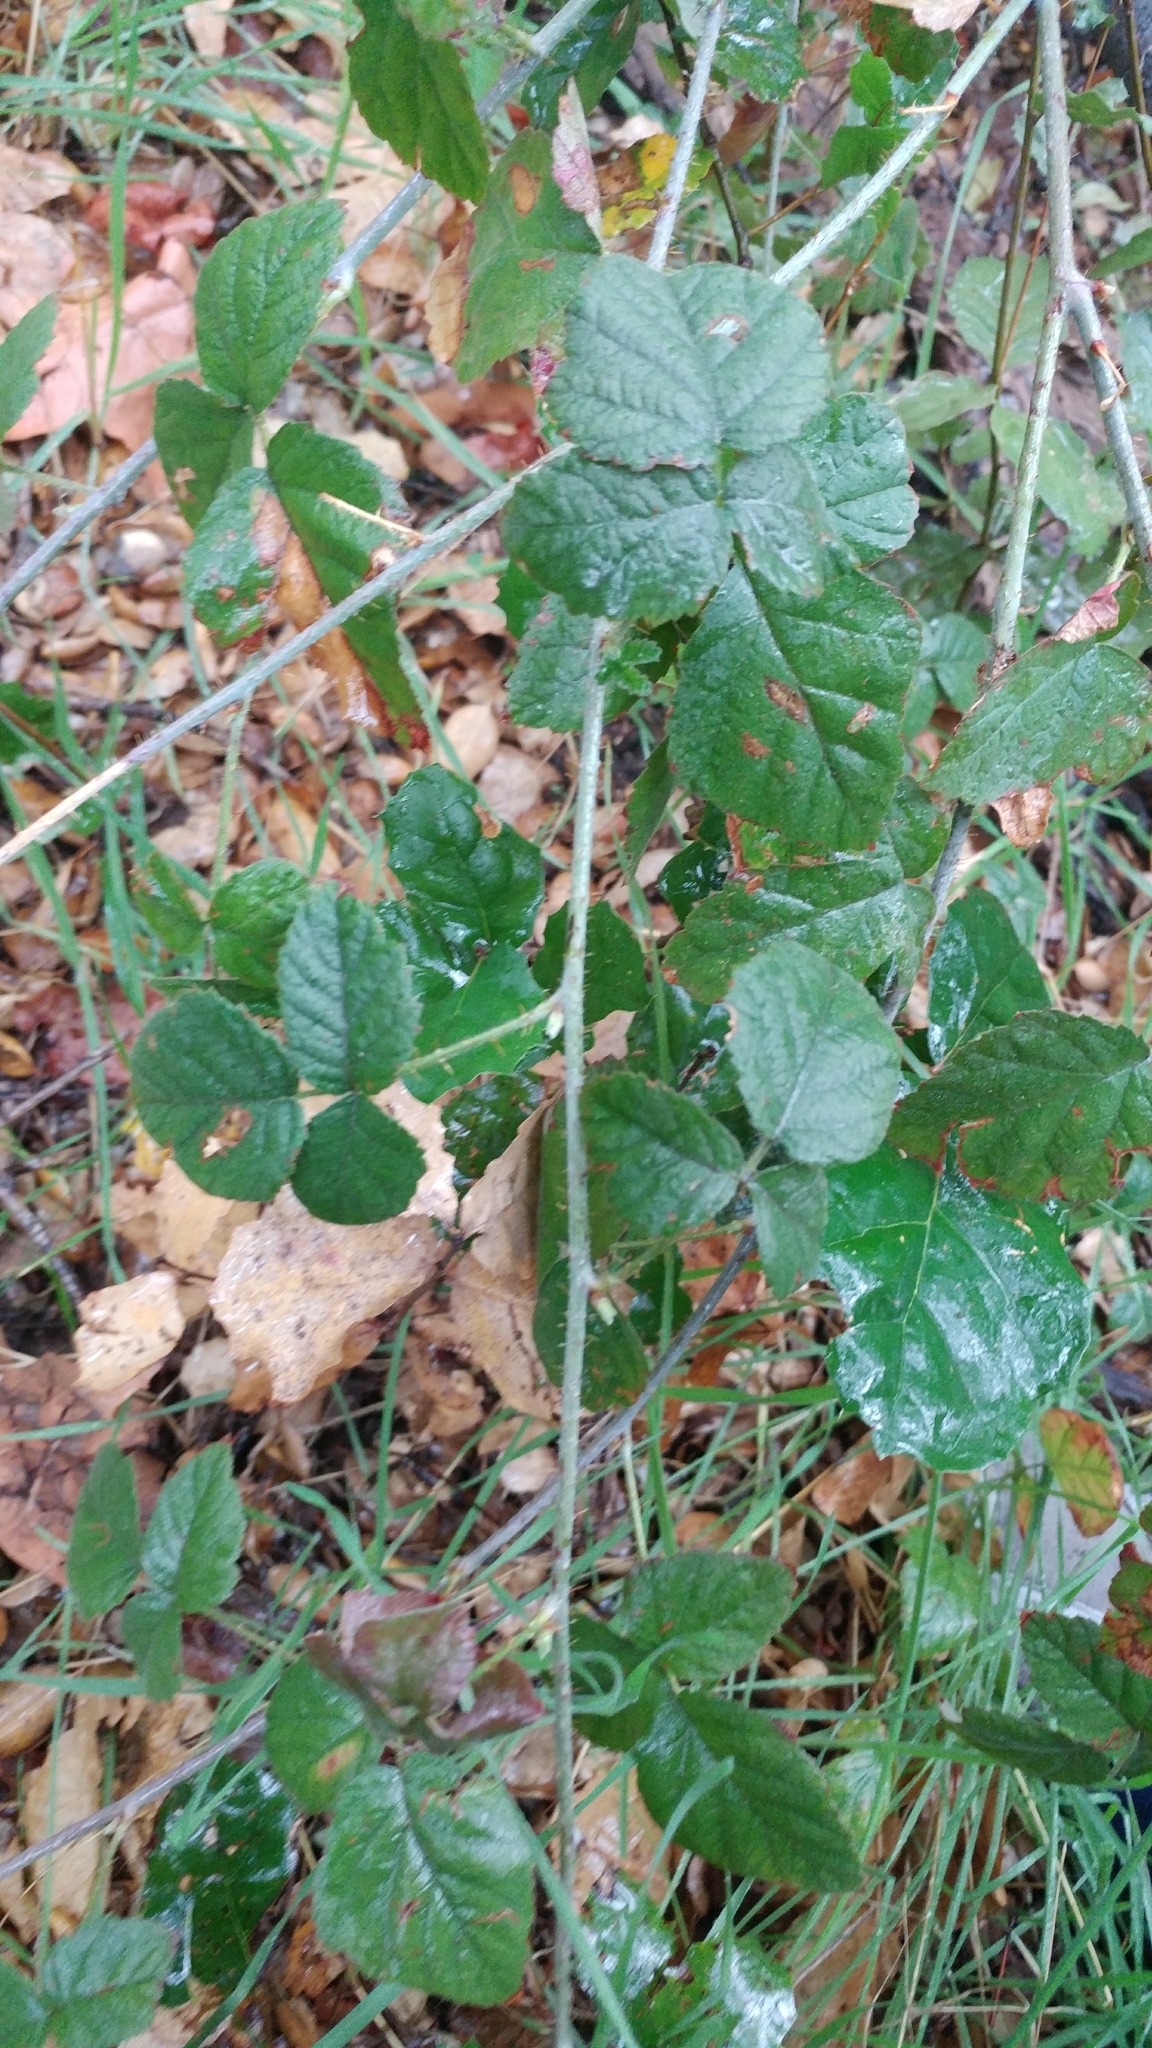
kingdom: Plantae
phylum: Tracheophyta
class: Magnoliopsida
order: Rosales
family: Rosaceae
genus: Rubus
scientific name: Rubus ursinus
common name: Pacific blackberry
